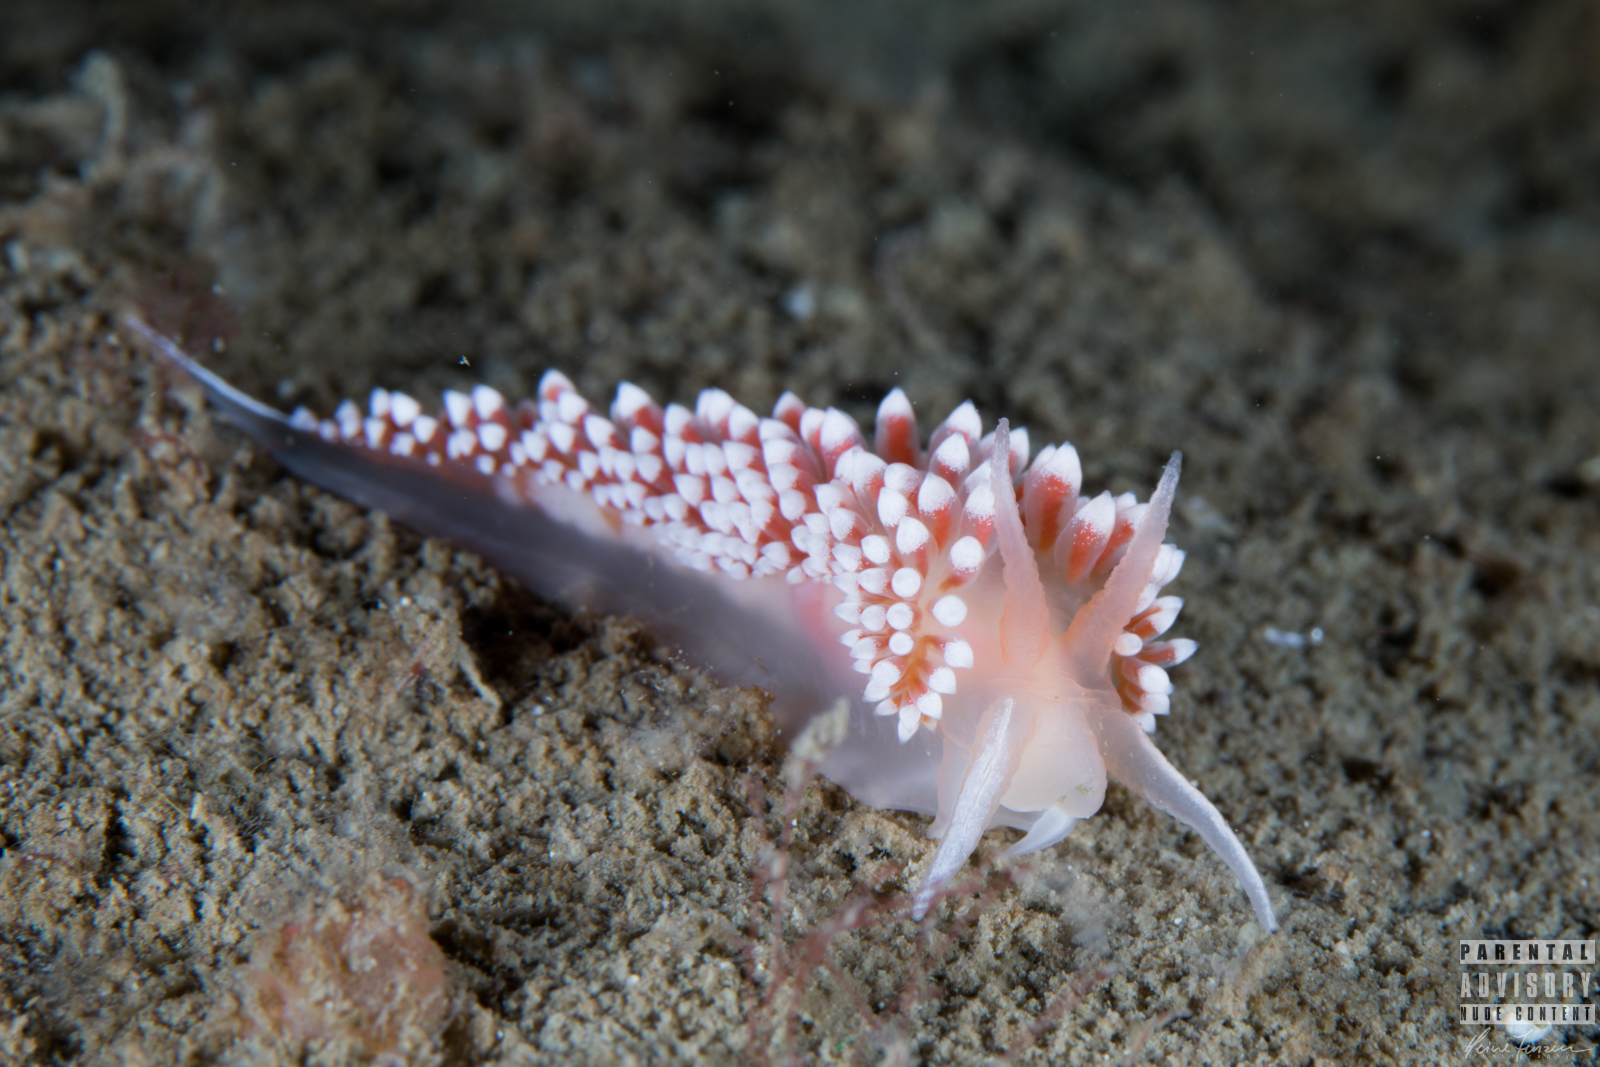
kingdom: Animalia
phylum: Mollusca
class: Gastropoda
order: Nudibranchia
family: Coryphellidae
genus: Coryphella
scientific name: Coryphella verrucosa
